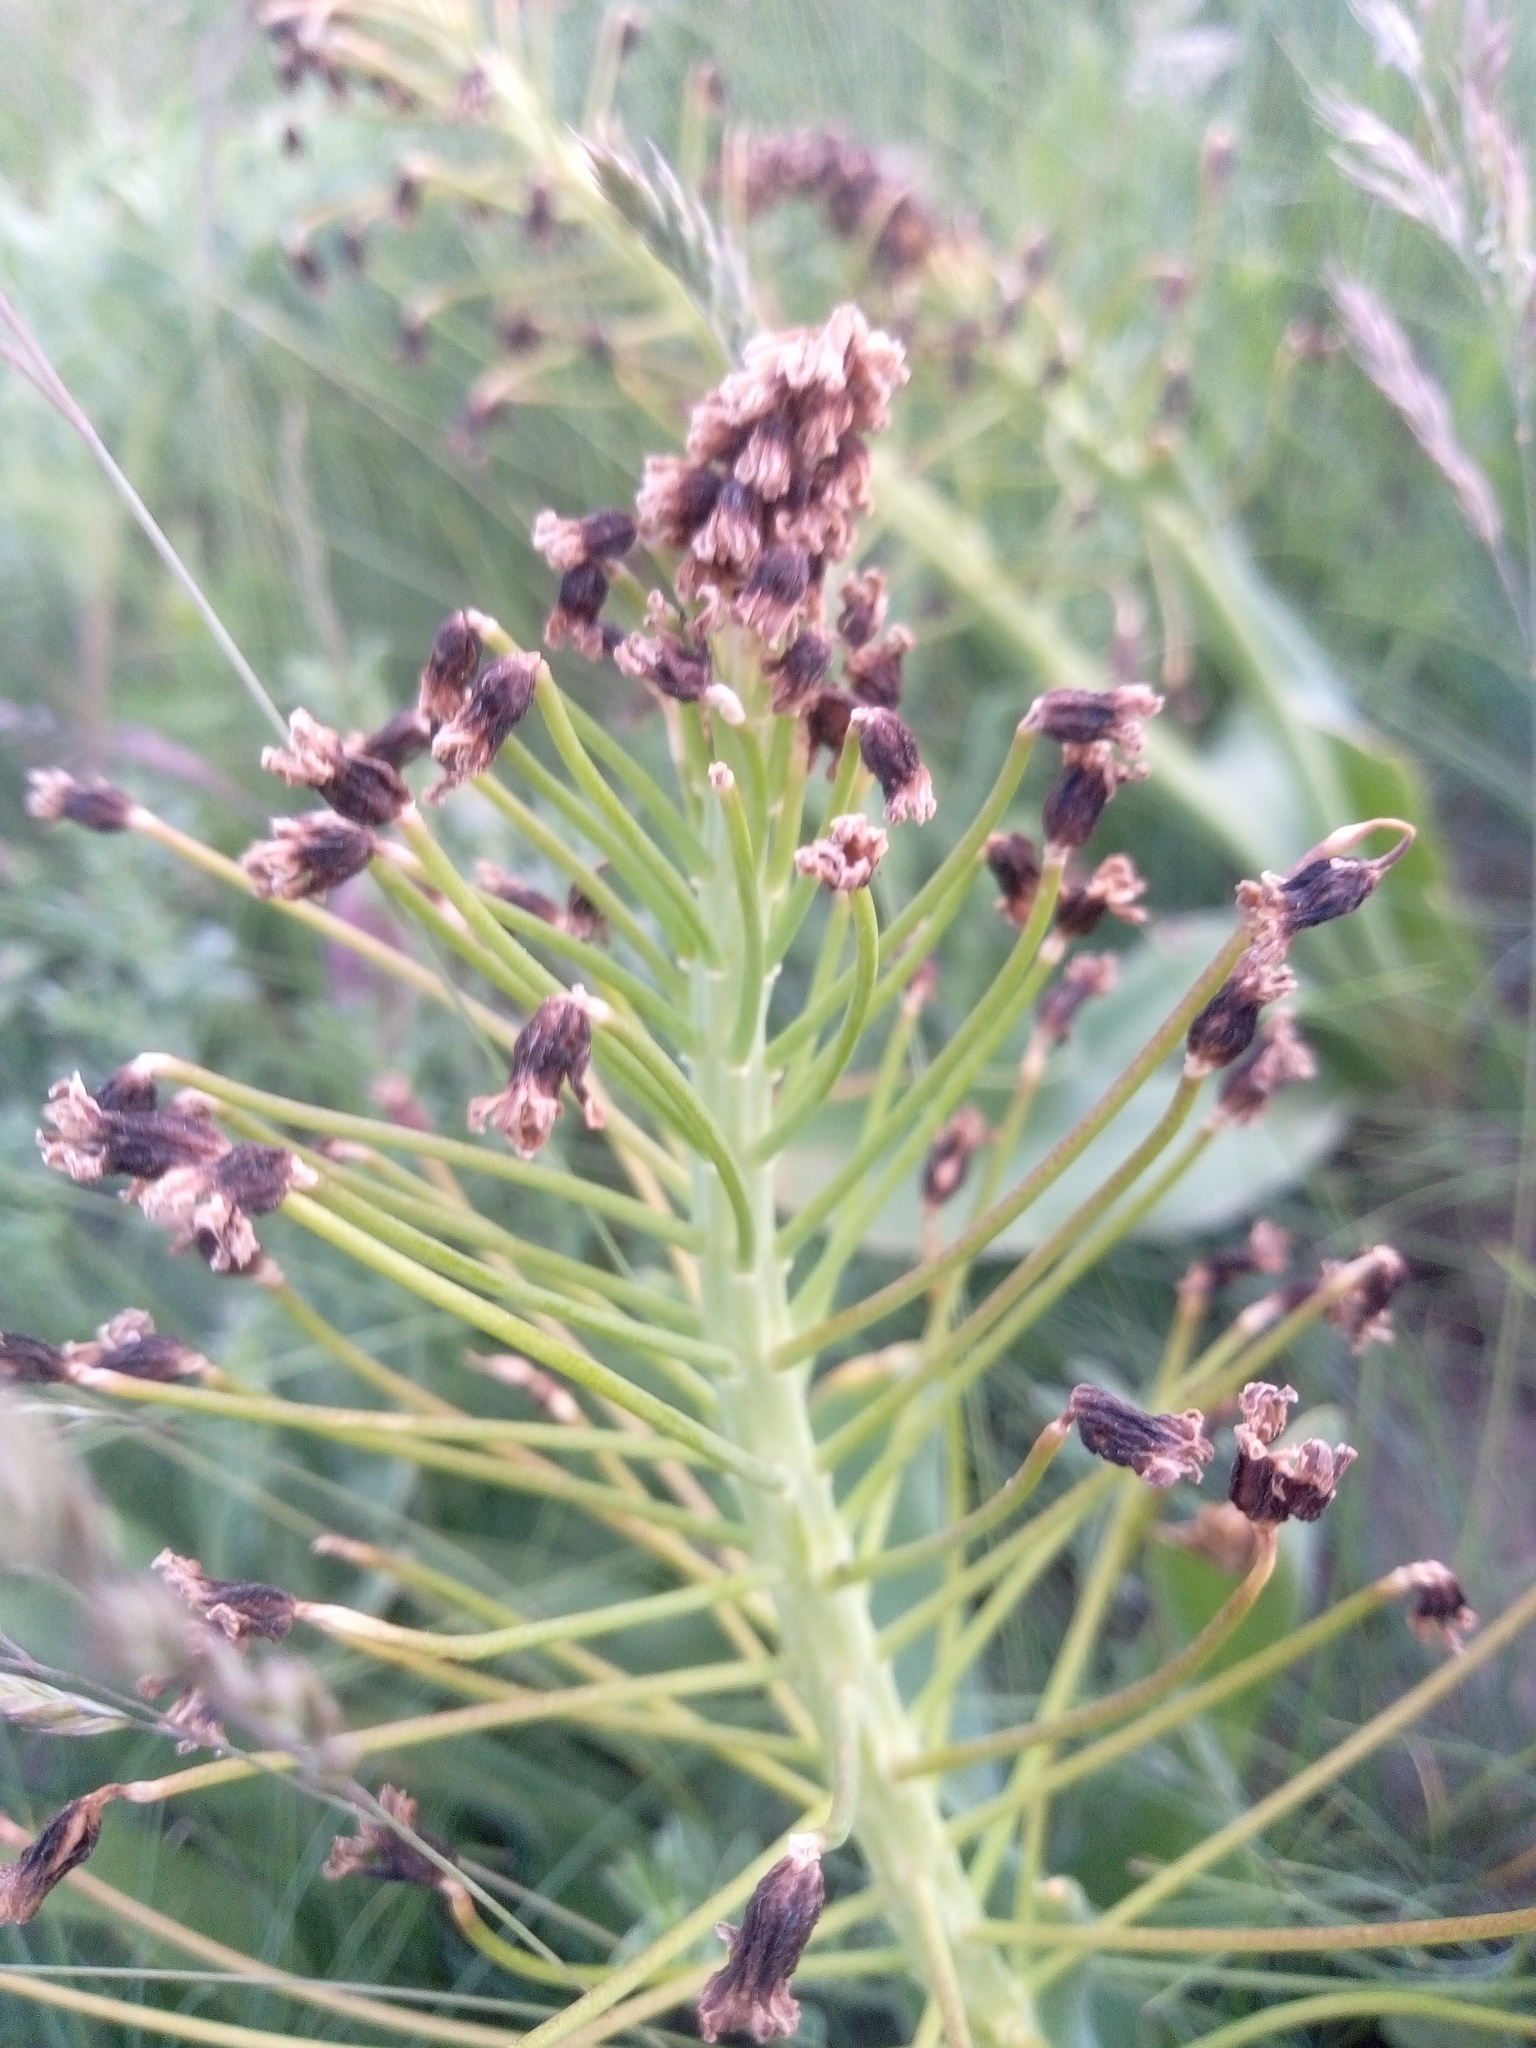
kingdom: Plantae
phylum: Tracheophyta
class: Liliopsida
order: Asparagales
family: Asparagaceae
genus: Bellevalia
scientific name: Bellevalia speciosa
